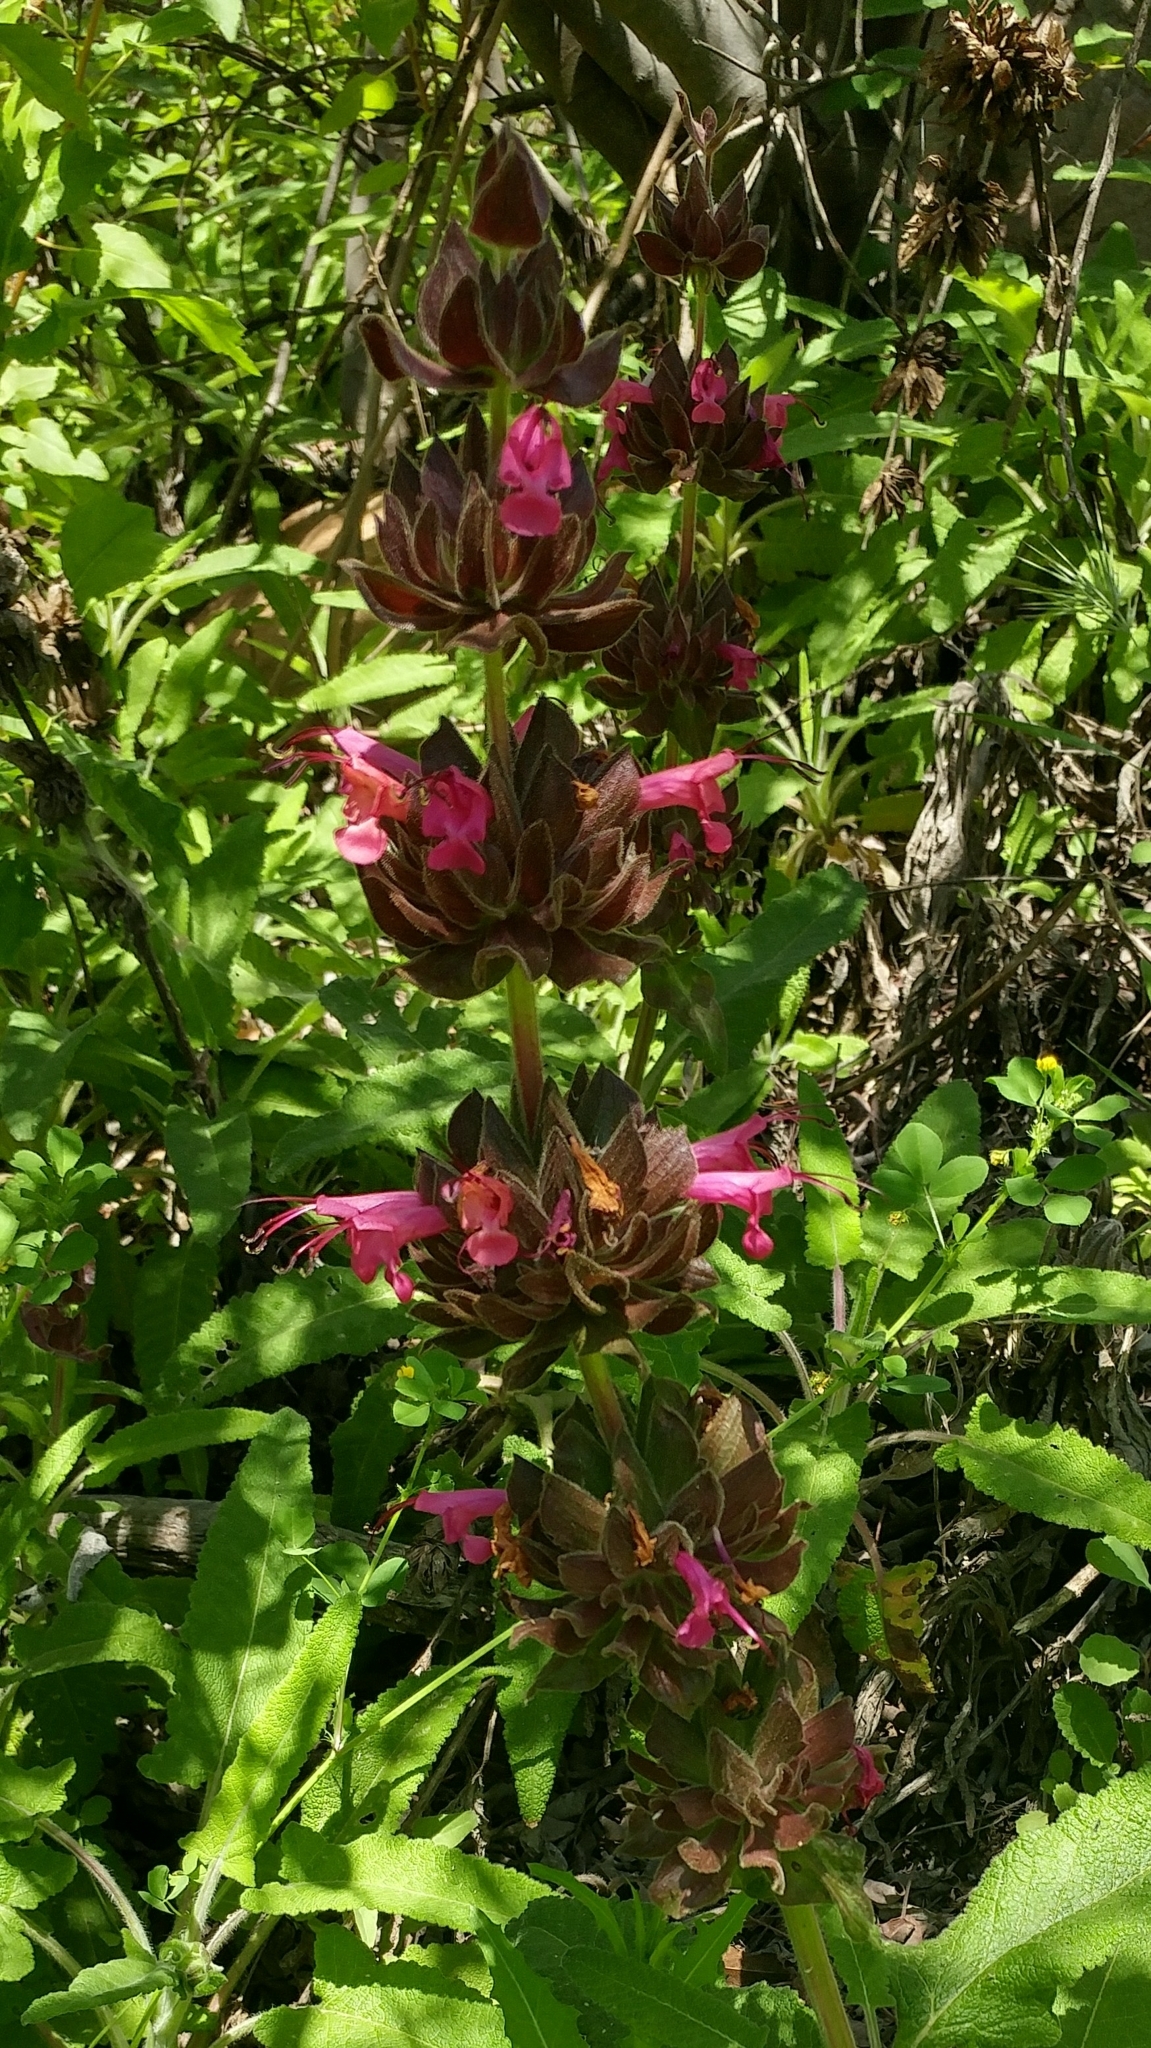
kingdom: Plantae
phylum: Tracheophyta
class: Magnoliopsida
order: Lamiales
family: Lamiaceae
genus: Salvia
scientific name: Salvia spathacea
